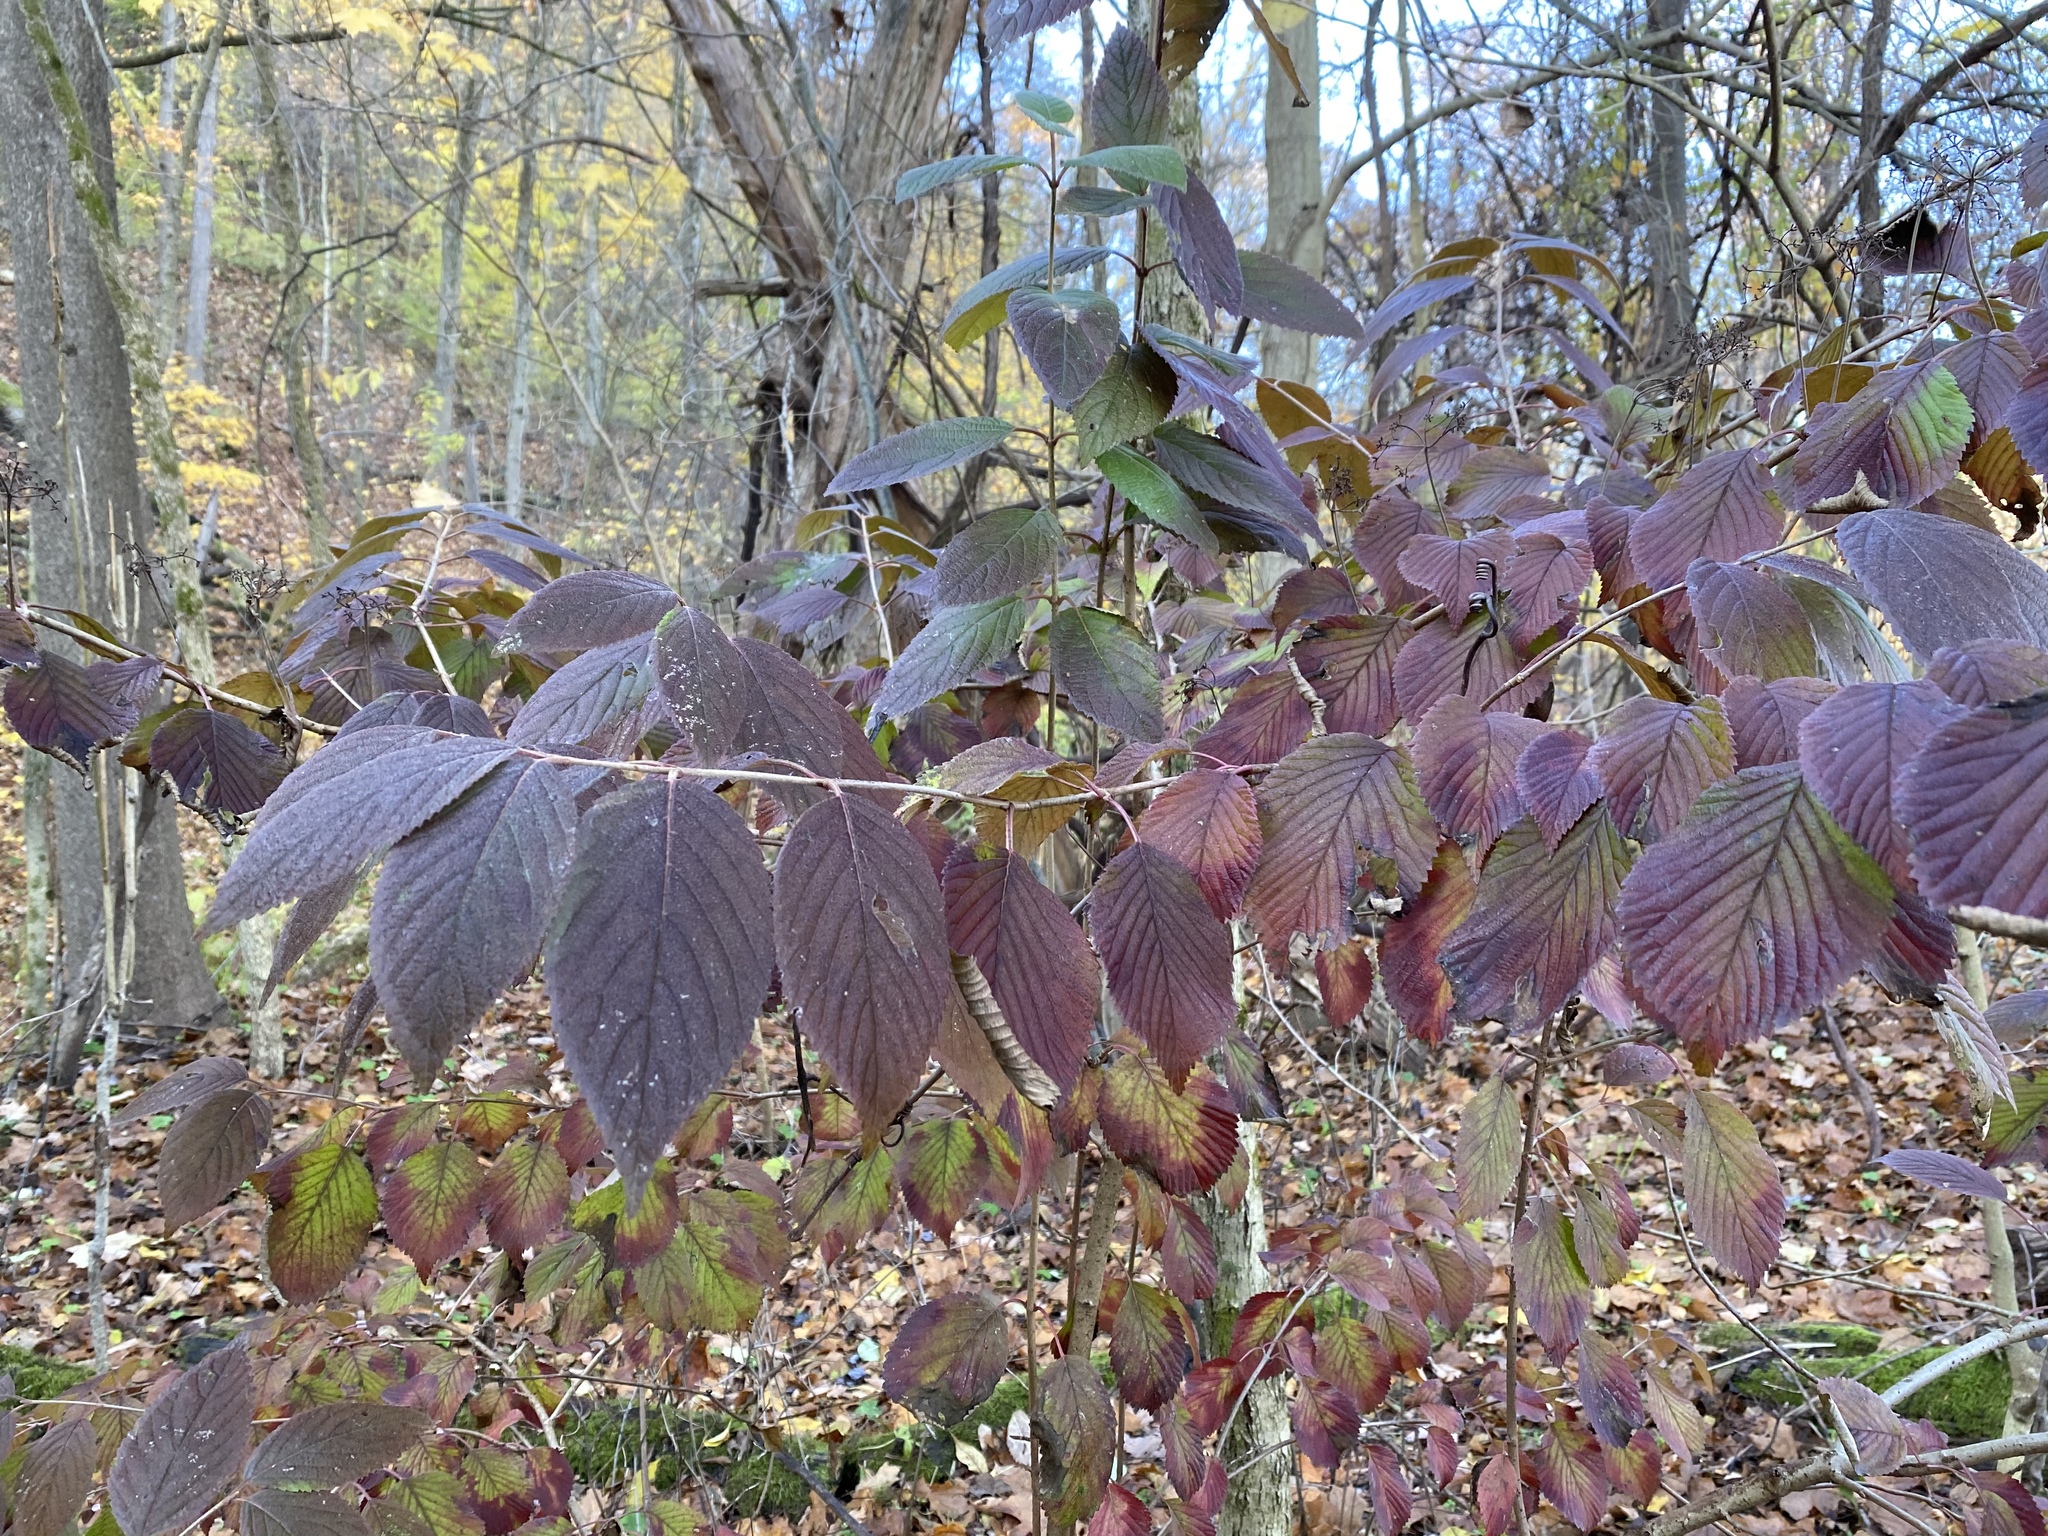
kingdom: Plantae
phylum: Tracheophyta
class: Magnoliopsida
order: Dipsacales
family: Viburnaceae
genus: Viburnum
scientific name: Viburnum plicatum
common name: Japanese snowball
